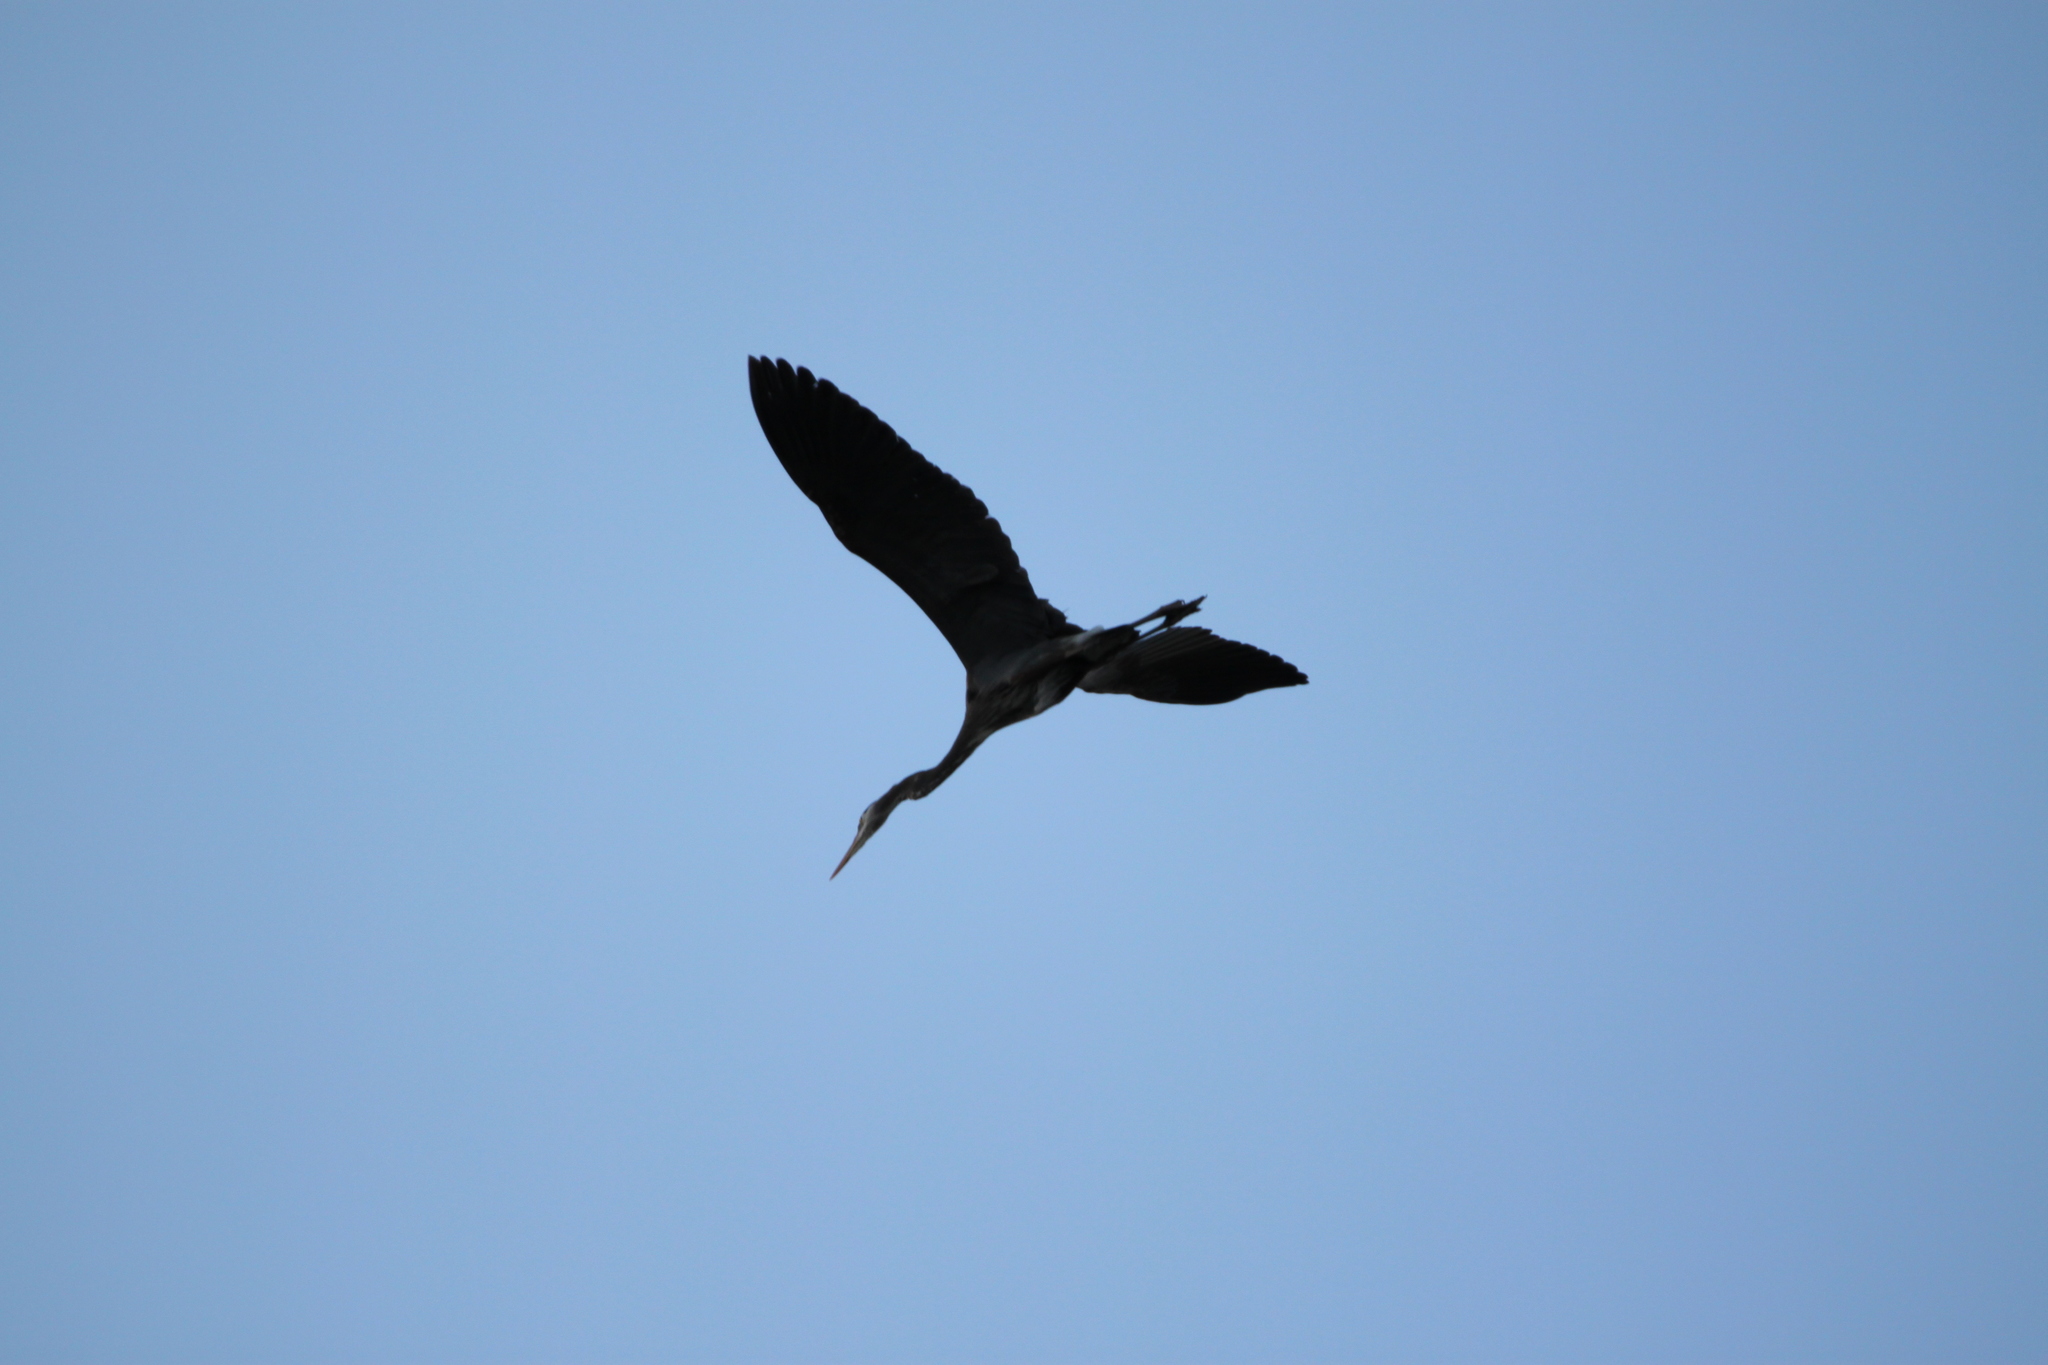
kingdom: Animalia
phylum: Chordata
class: Aves
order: Pelecaniformes
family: Ardeidae
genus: Ardea
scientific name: Ardea herodias
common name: Great blue heron
